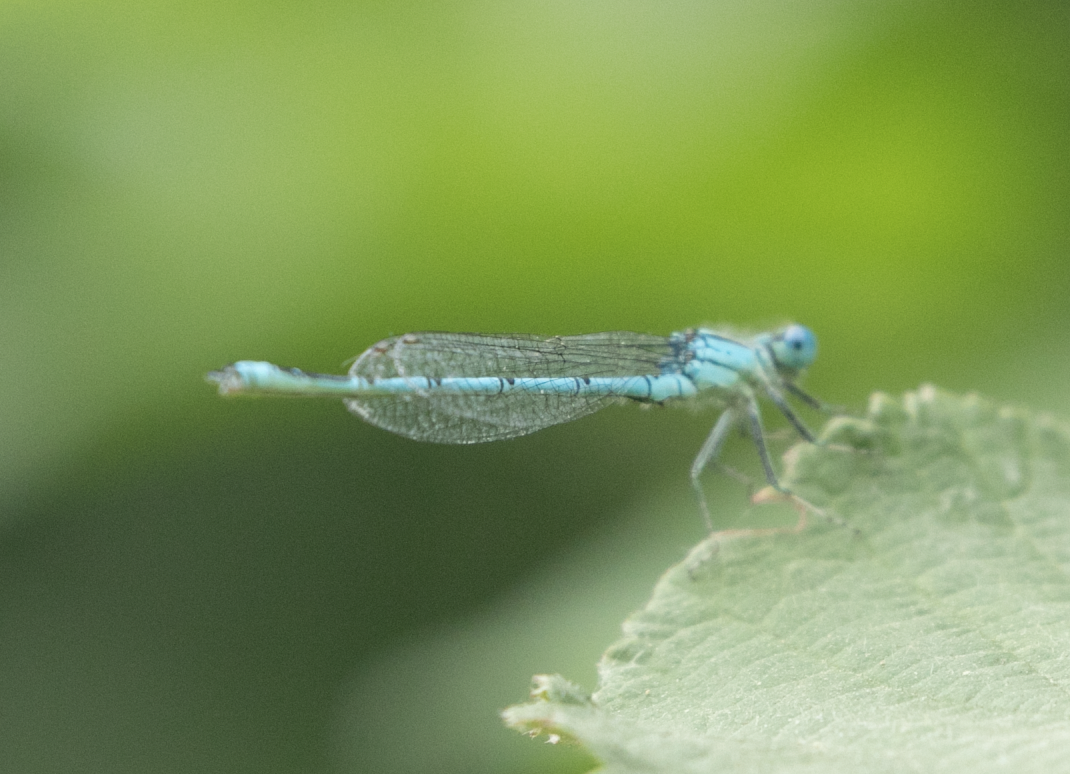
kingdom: Animalia
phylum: Arthropoda
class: Insecta
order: Odonata
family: Coenagrionidae
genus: Erythromma
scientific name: Erythromma lindenii
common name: Blue-eye
